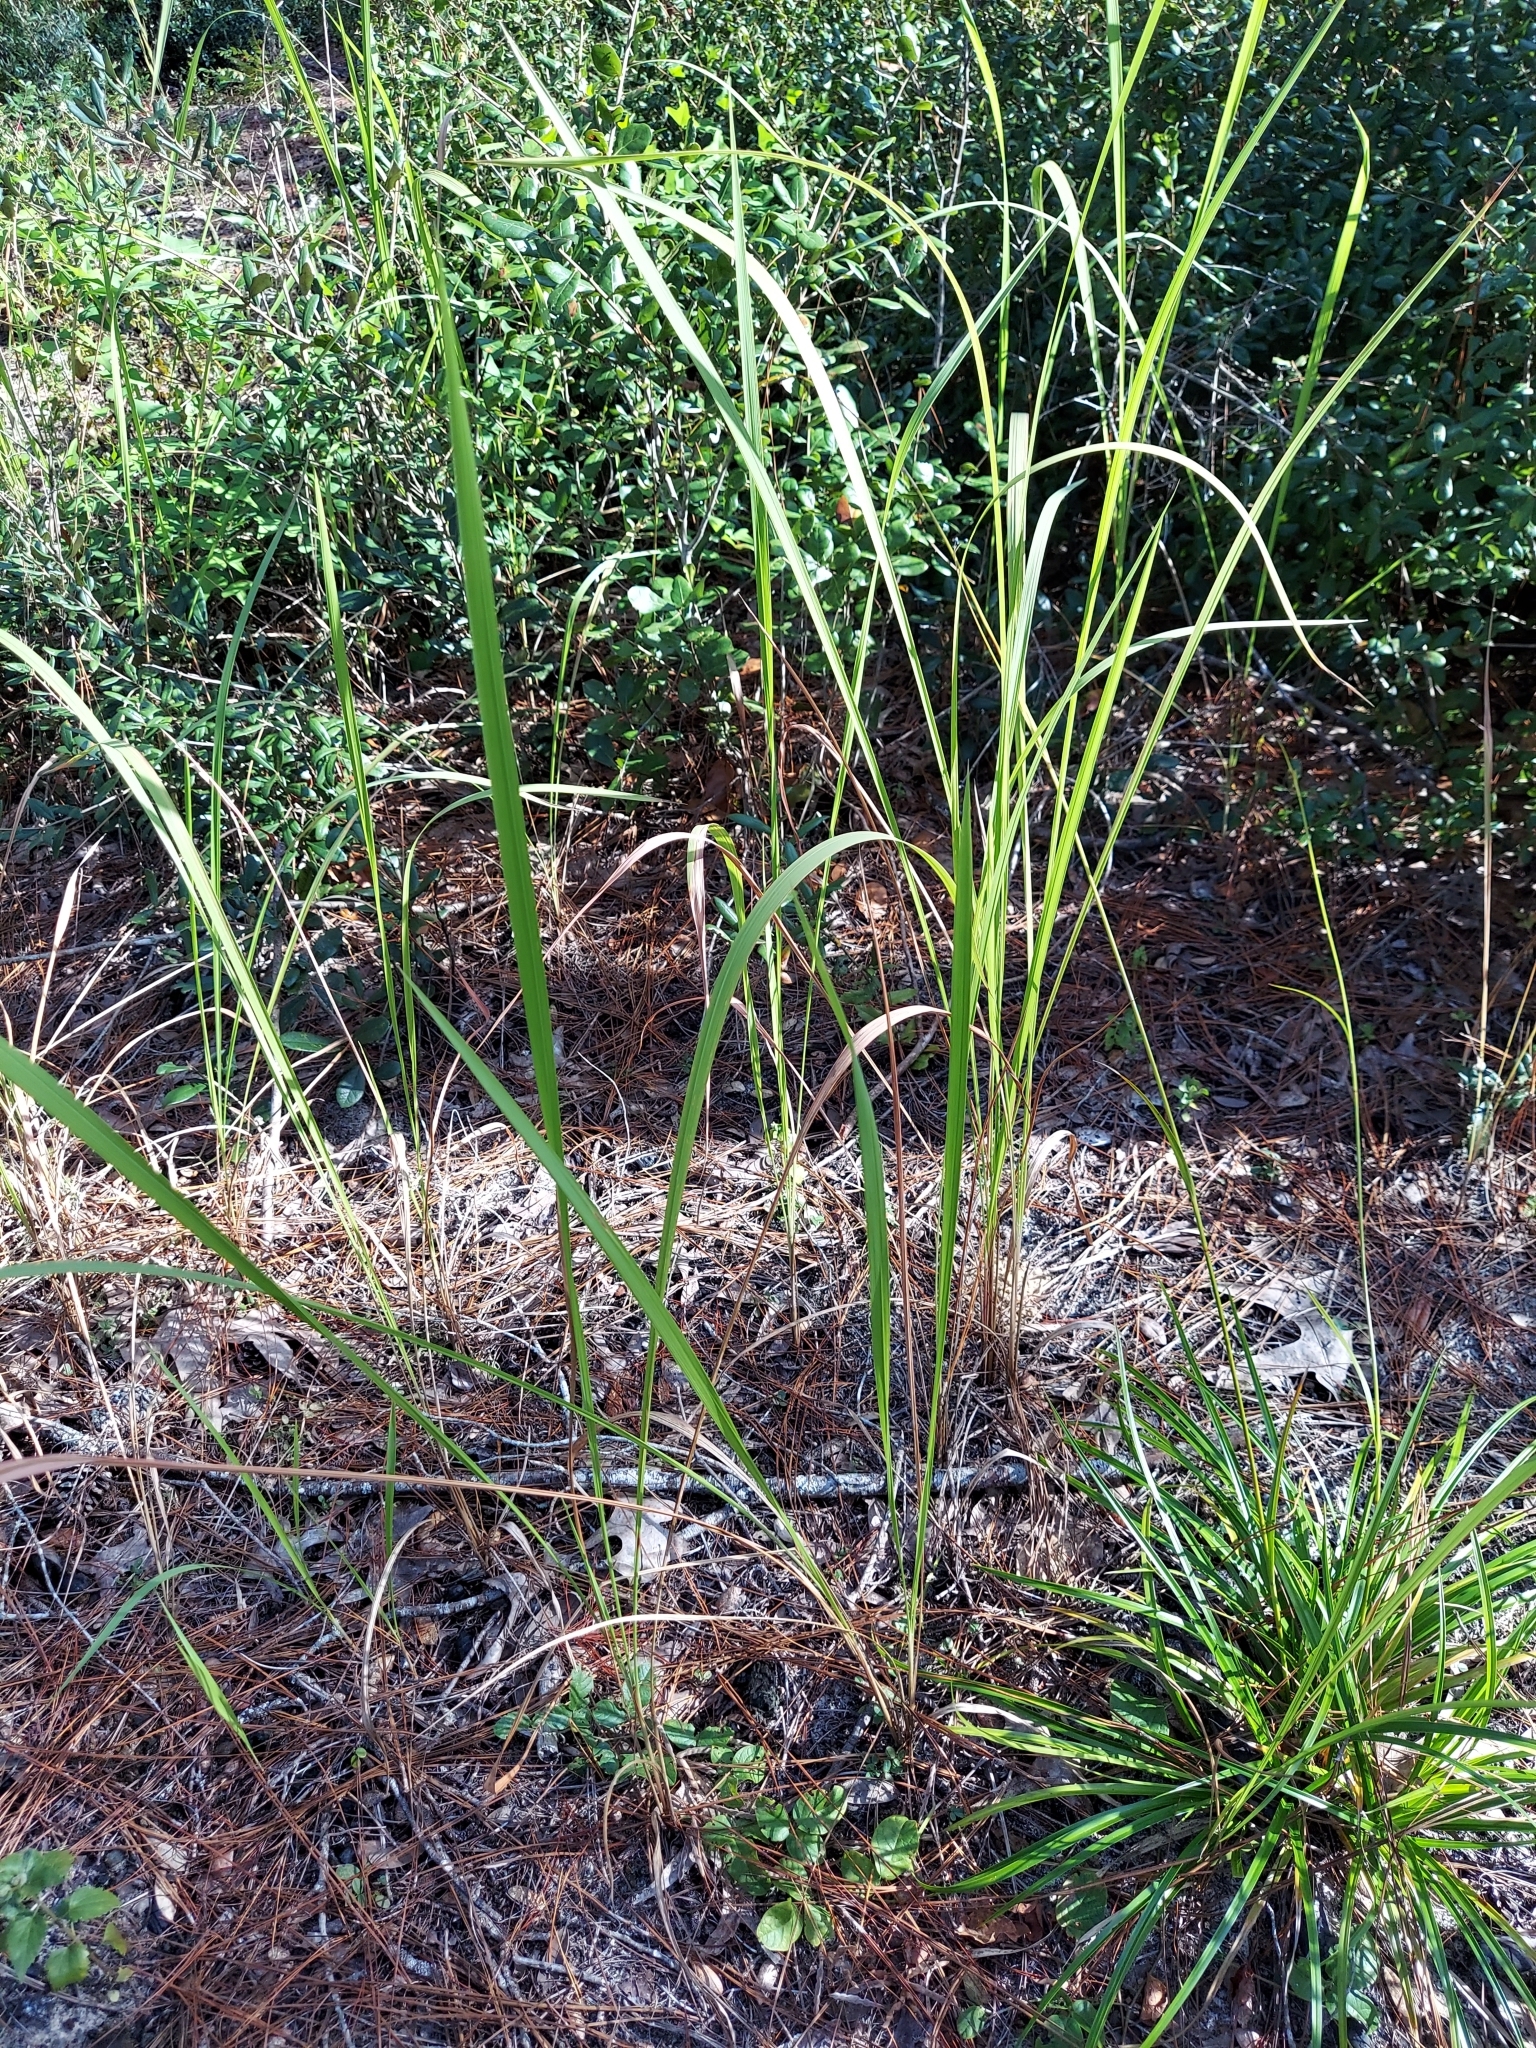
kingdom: Plantae
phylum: Tracheophyta
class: Liliopsida
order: Poales
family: Poaceae
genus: Imperata
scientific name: Imperata cylindrica
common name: Cogongrass
